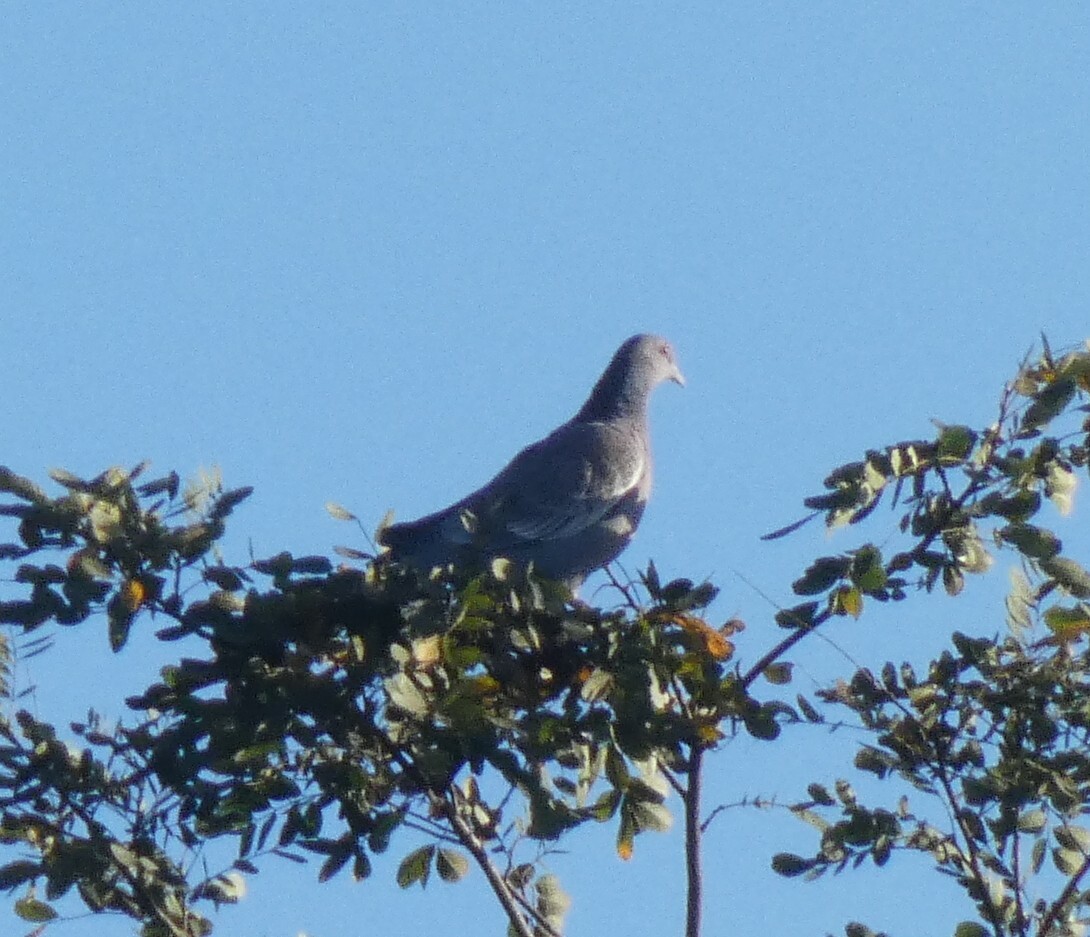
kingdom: Animalia
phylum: Chordata
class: Aves
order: Columbiformes
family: Columbidae
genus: Patagioenas
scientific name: Patagioenas picazuro
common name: Picazuro pigeon
